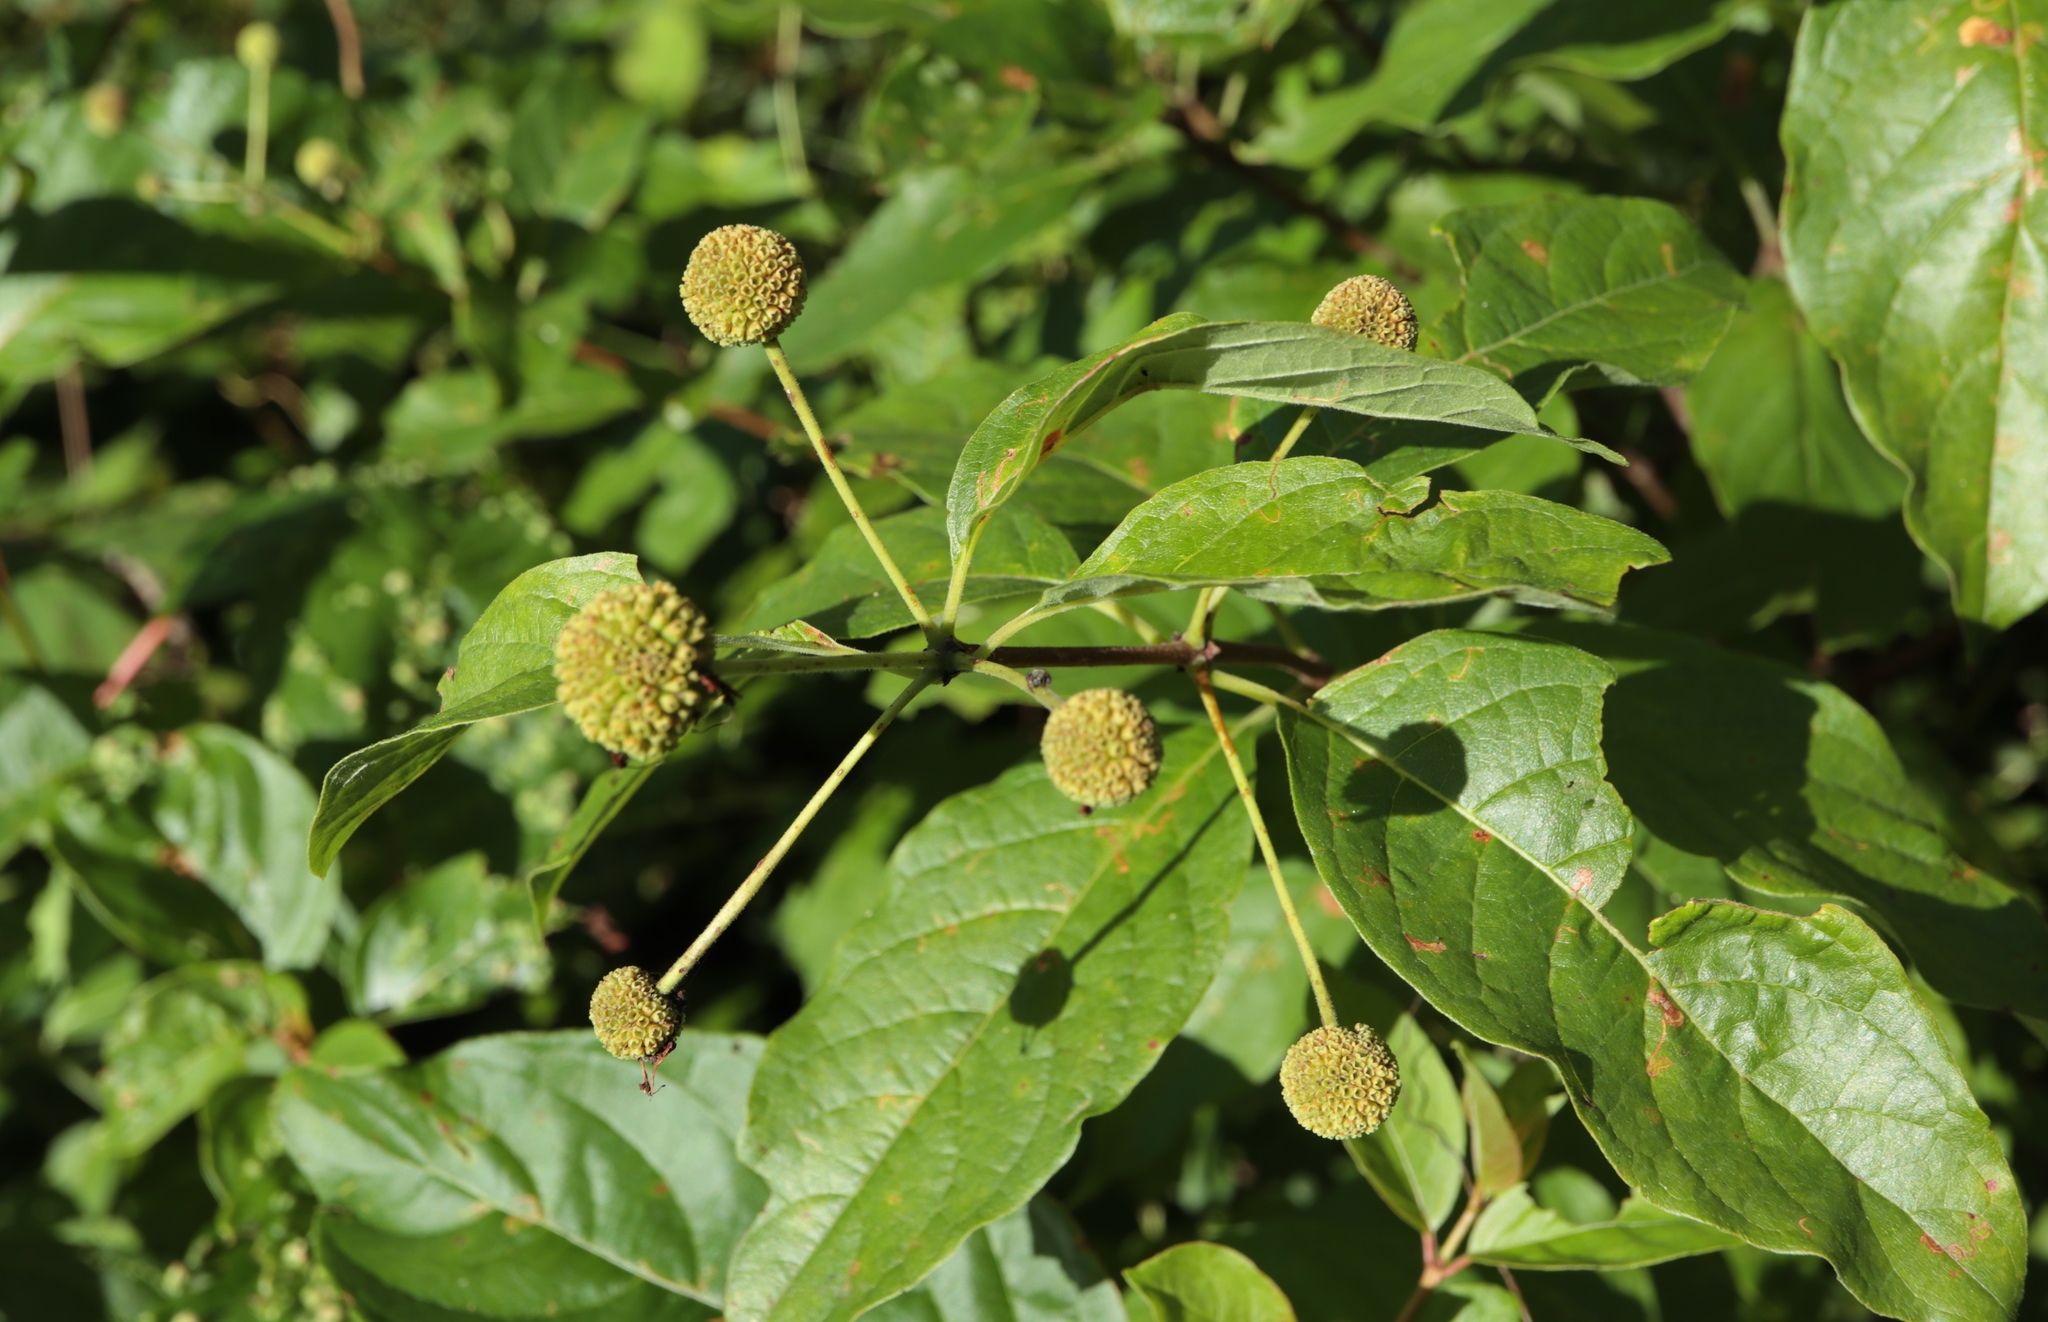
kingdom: Plantae
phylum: Tracheophyta
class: Magnoliopsida
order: Gentianales
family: Rubiaceae
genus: Cephalanthus
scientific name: Cephalanthus occidentalis
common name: Button-willow
